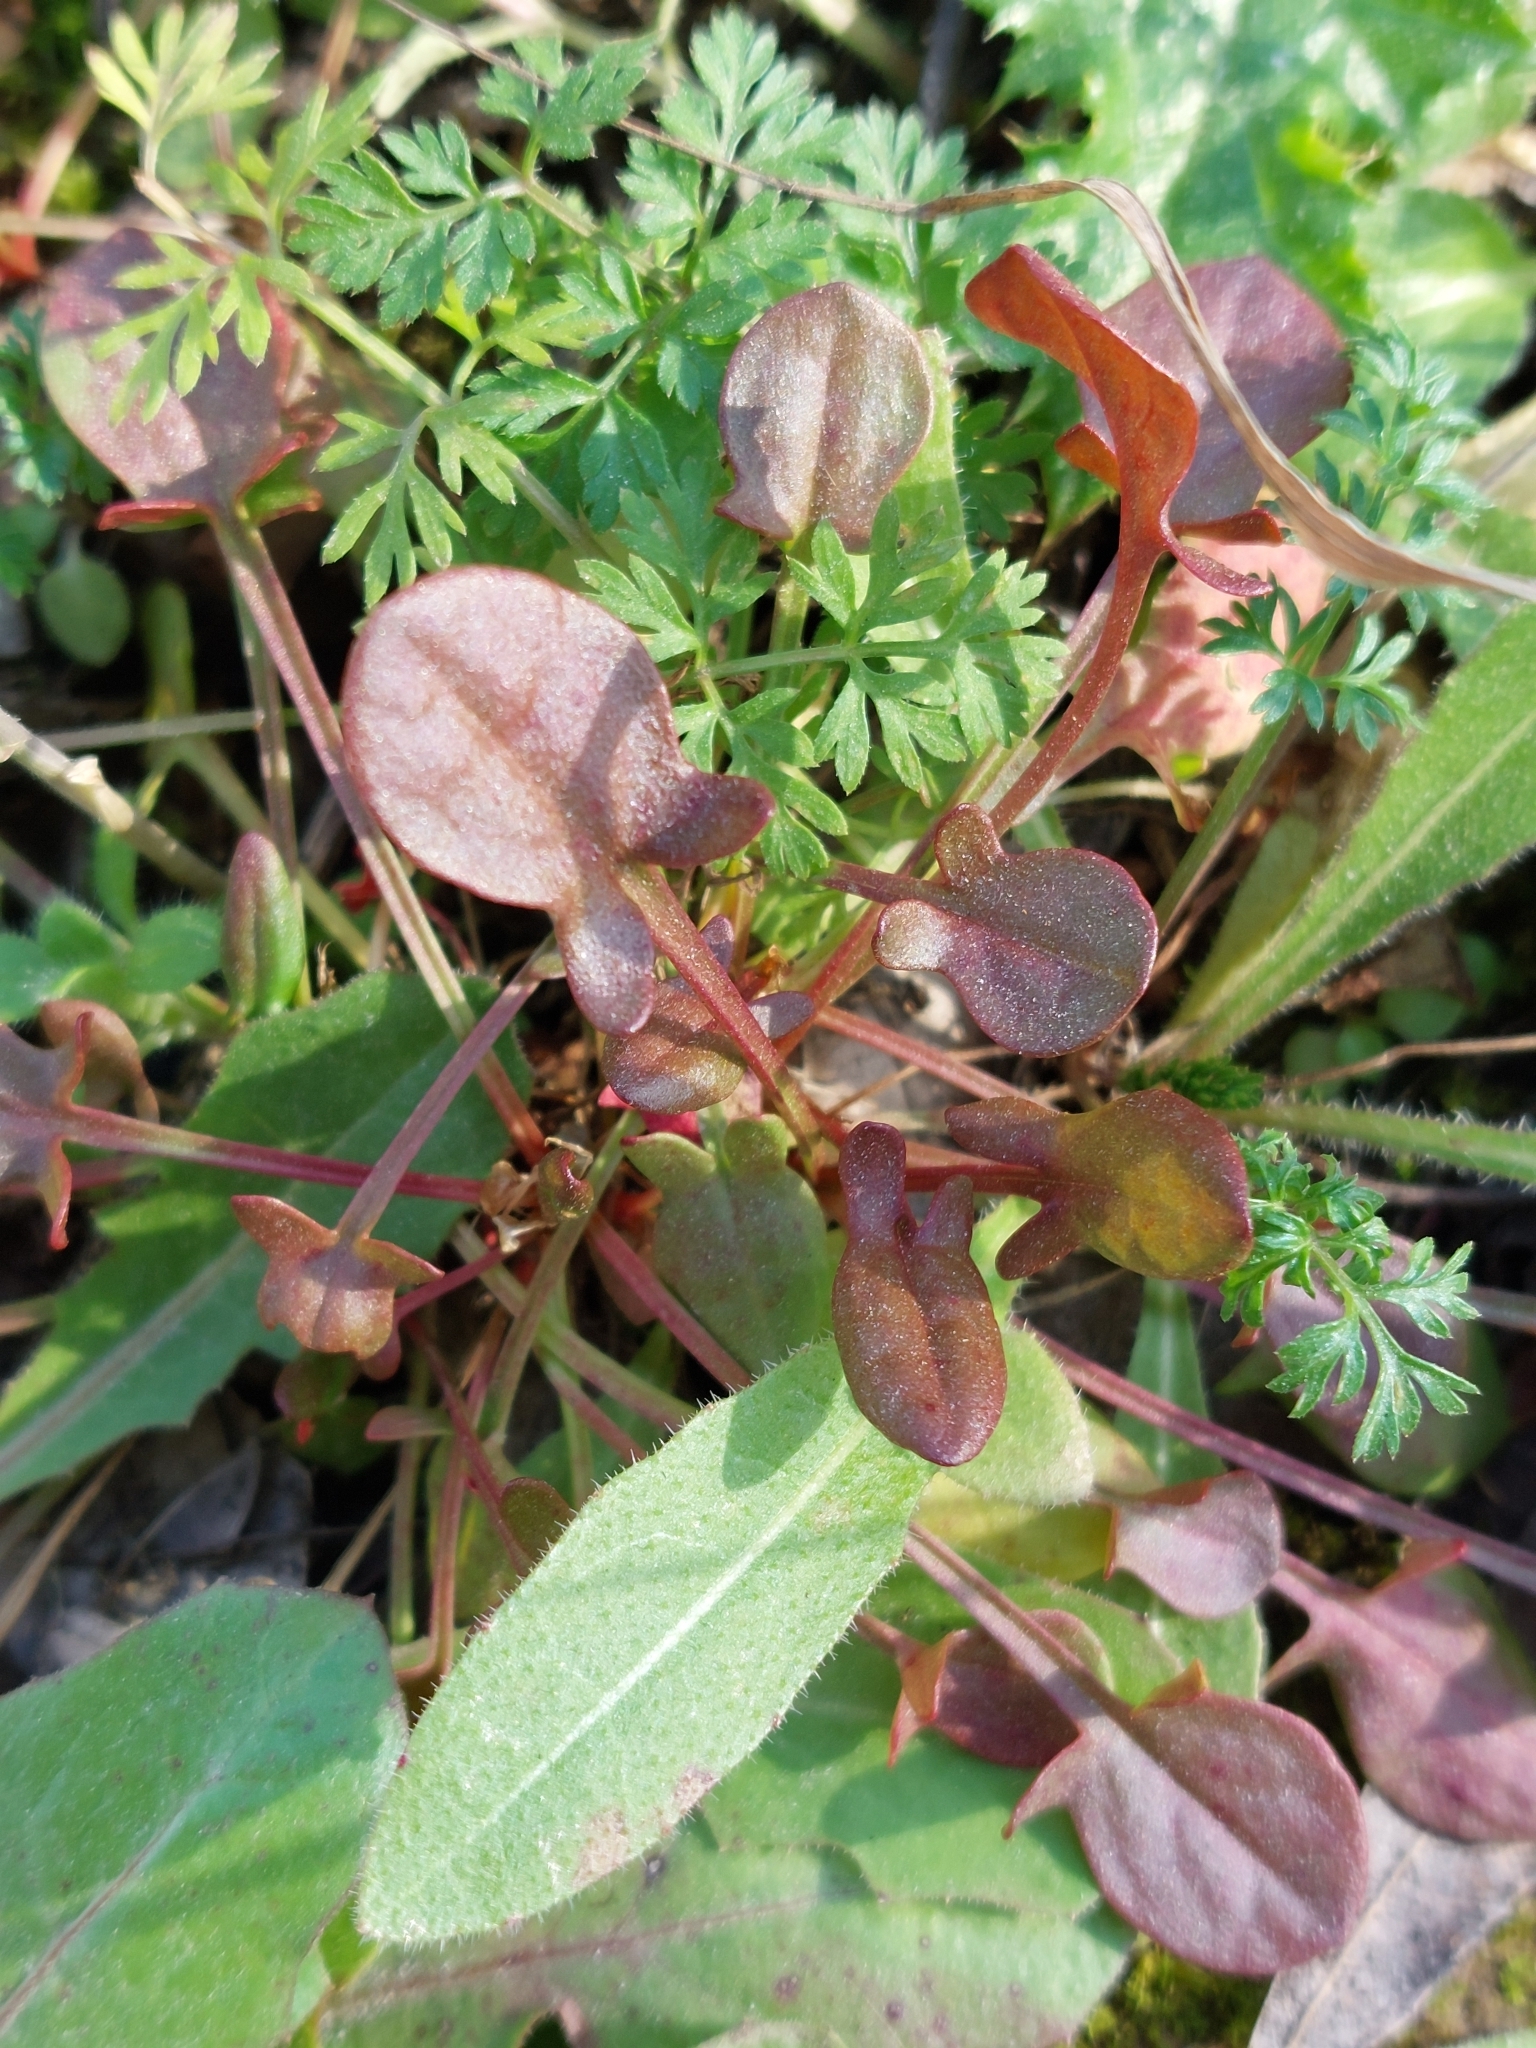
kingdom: Plantae
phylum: Tracheophyta
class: Magnoliopsida
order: Caryophyllales
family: Polygonaceae
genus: Rumex
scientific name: Rumex acetosella
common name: Common sheep sorrel
